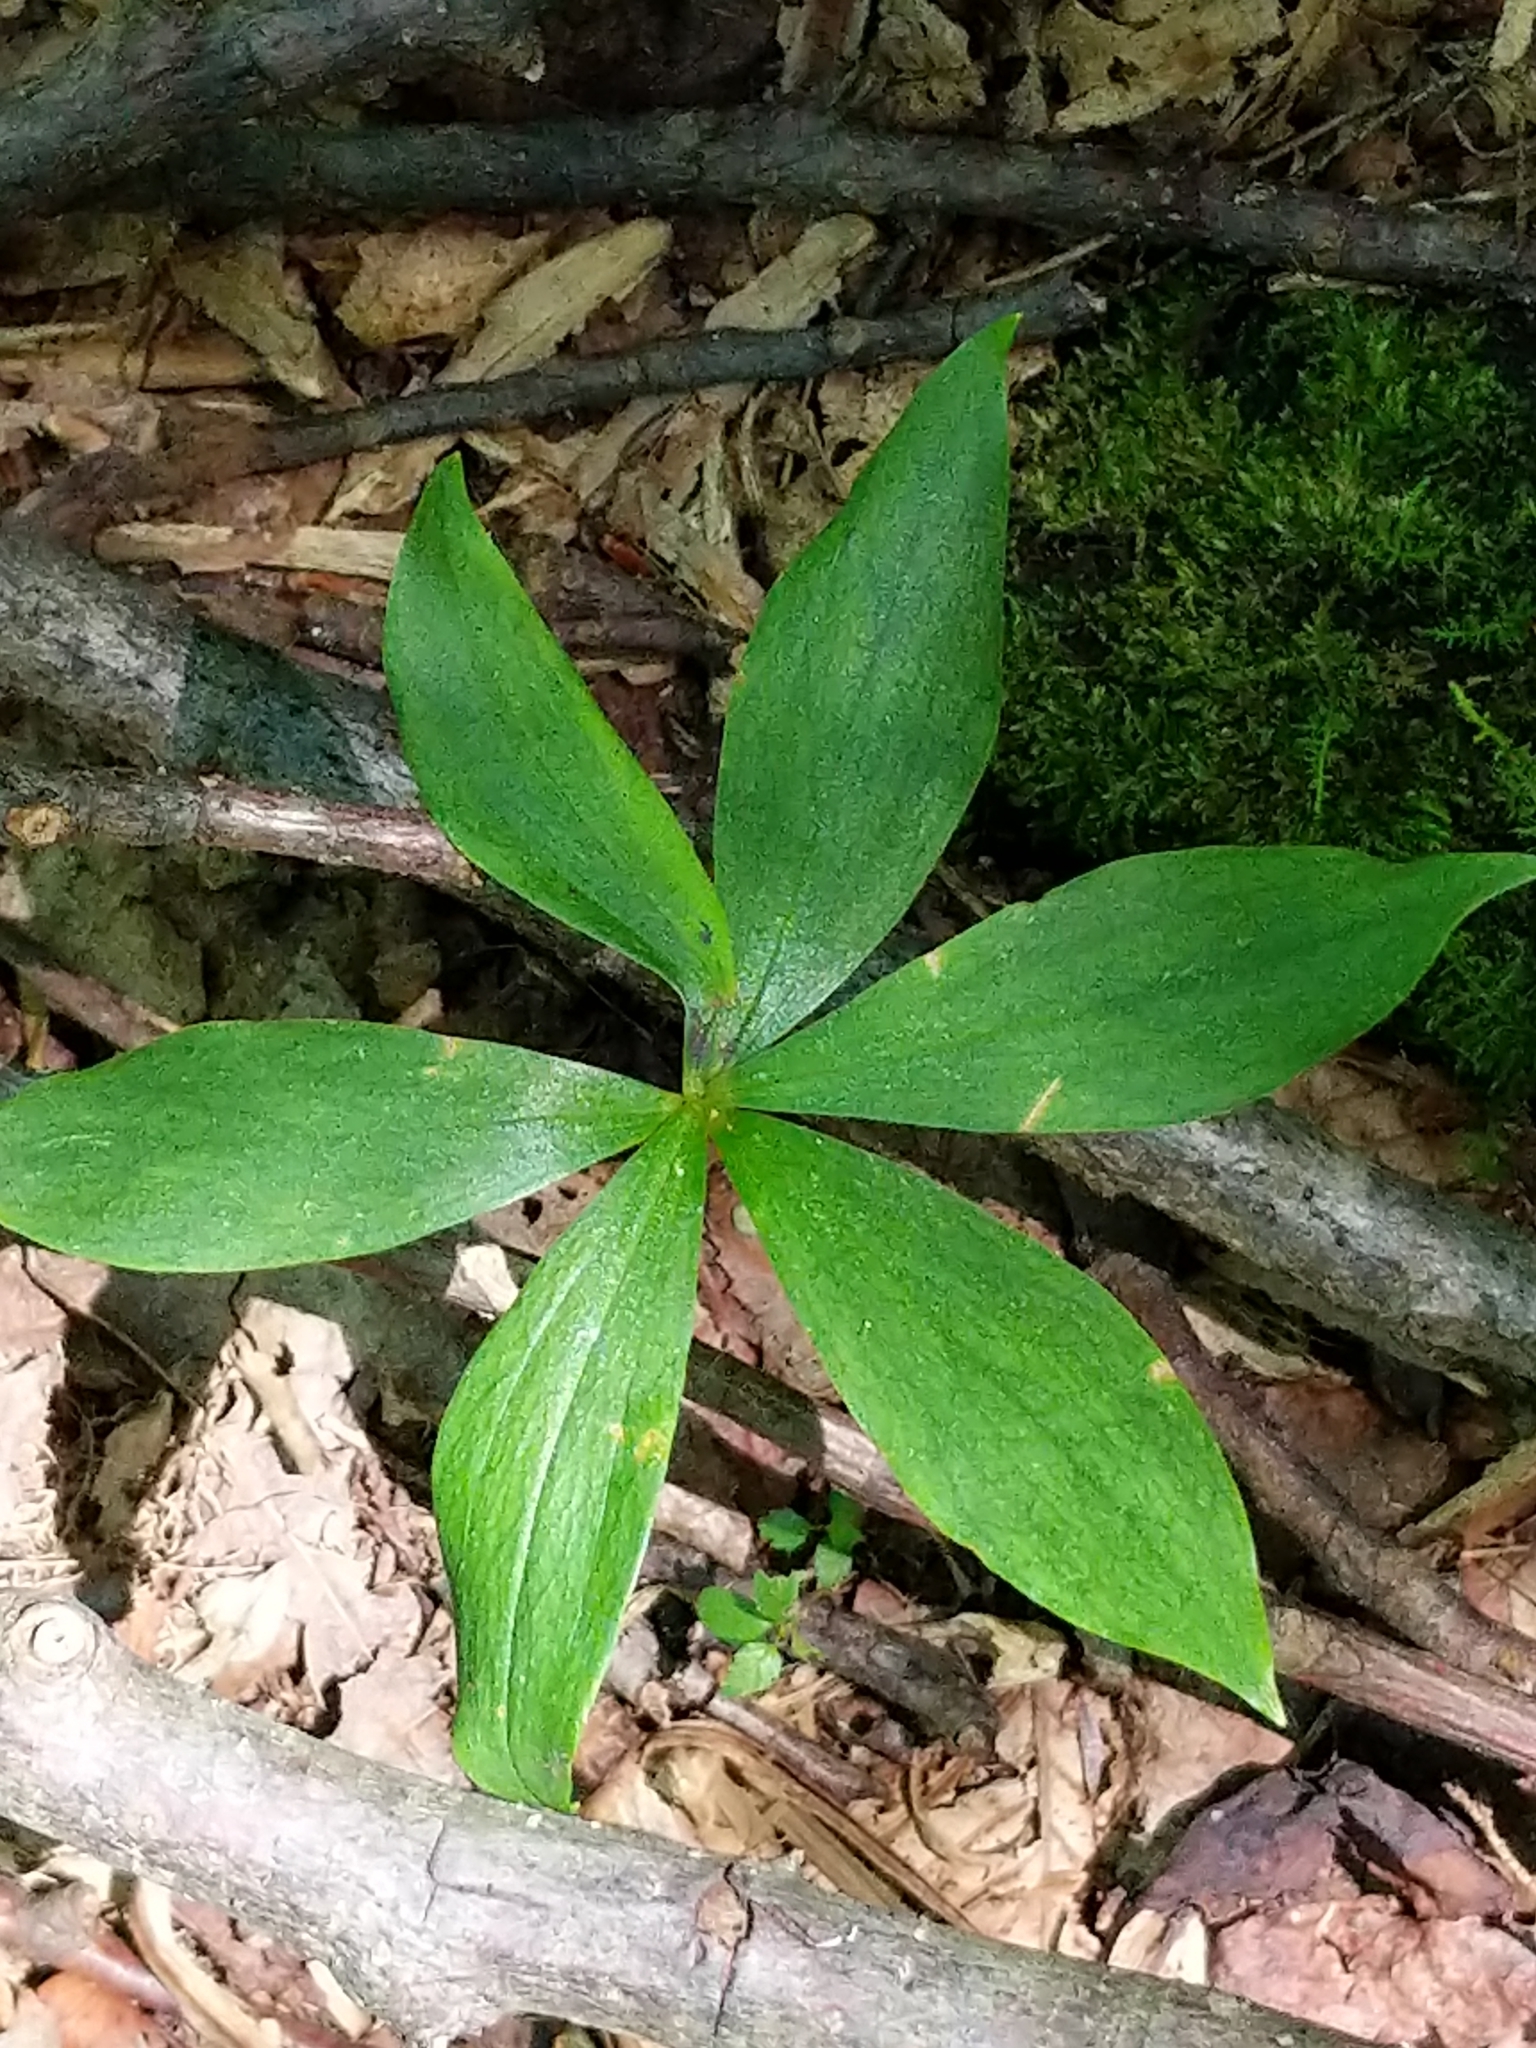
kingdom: Plantae
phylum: Tracheophyta
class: Liliopsida
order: Liliales
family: Liliaceae
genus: Medeola
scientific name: Medeola virginiana
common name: Indian cucumber-root
